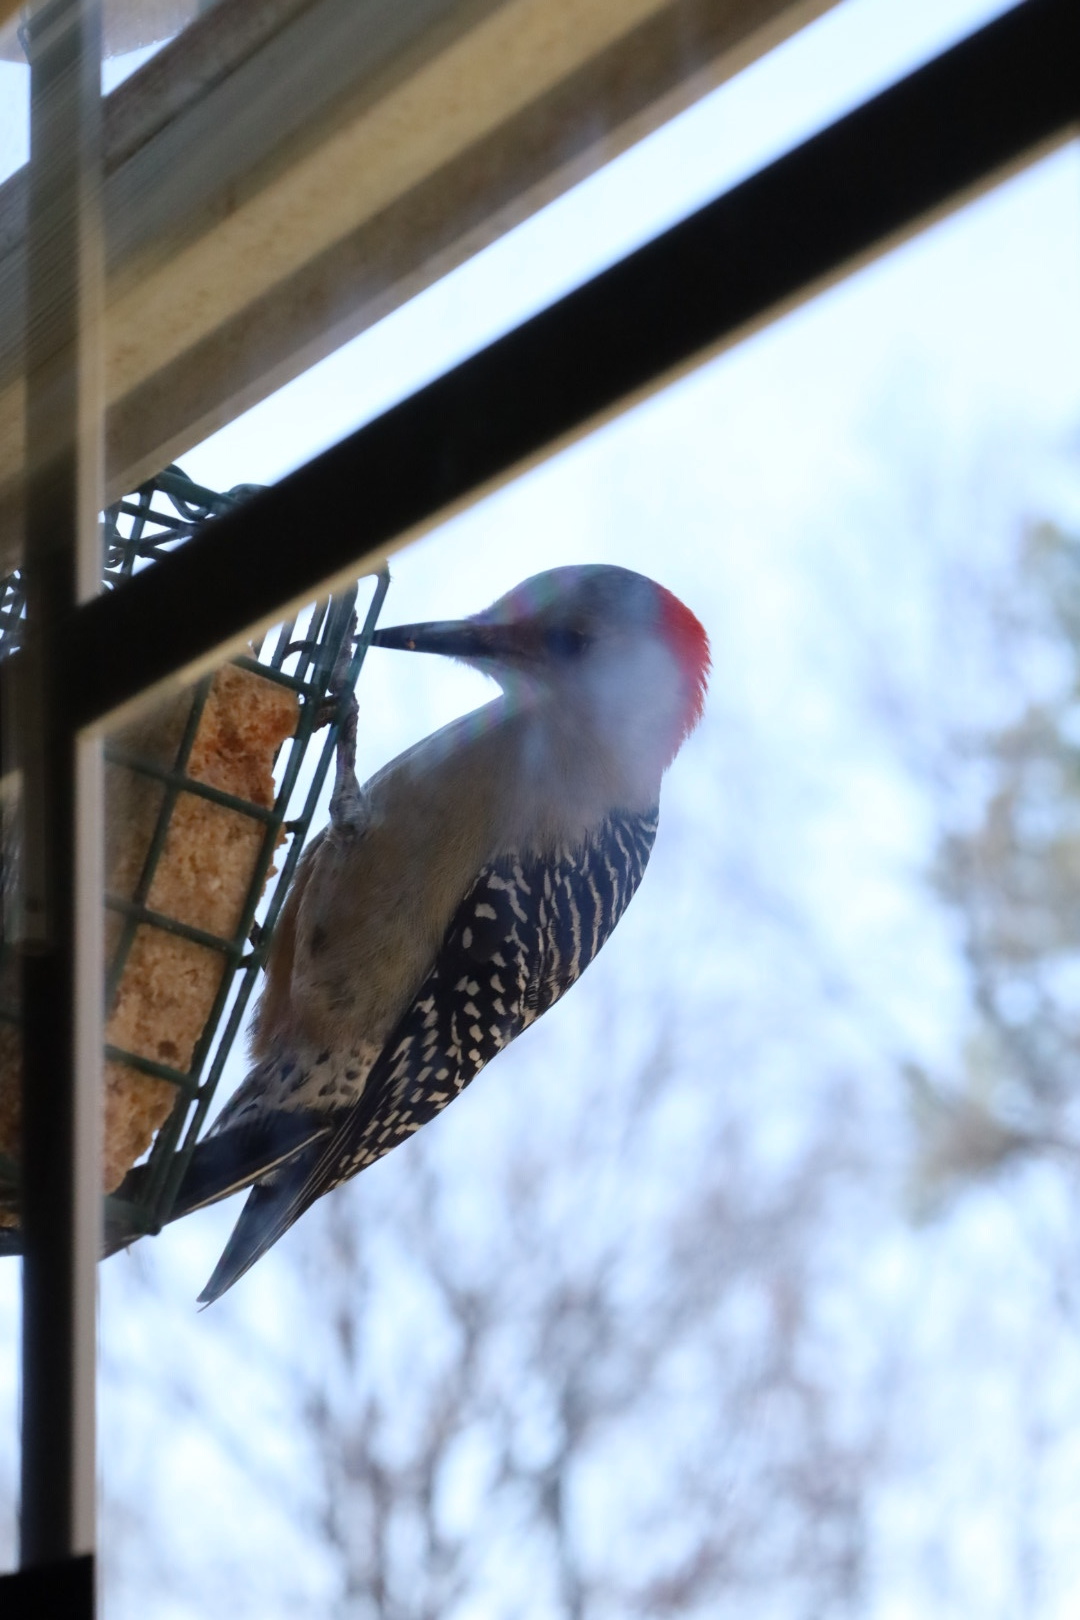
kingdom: Animalia
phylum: Chordata
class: Aves
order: Piciformes
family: Picidae
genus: Melanerpes
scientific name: Melanerpes carolinus
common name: Red-bellied woodpecker
